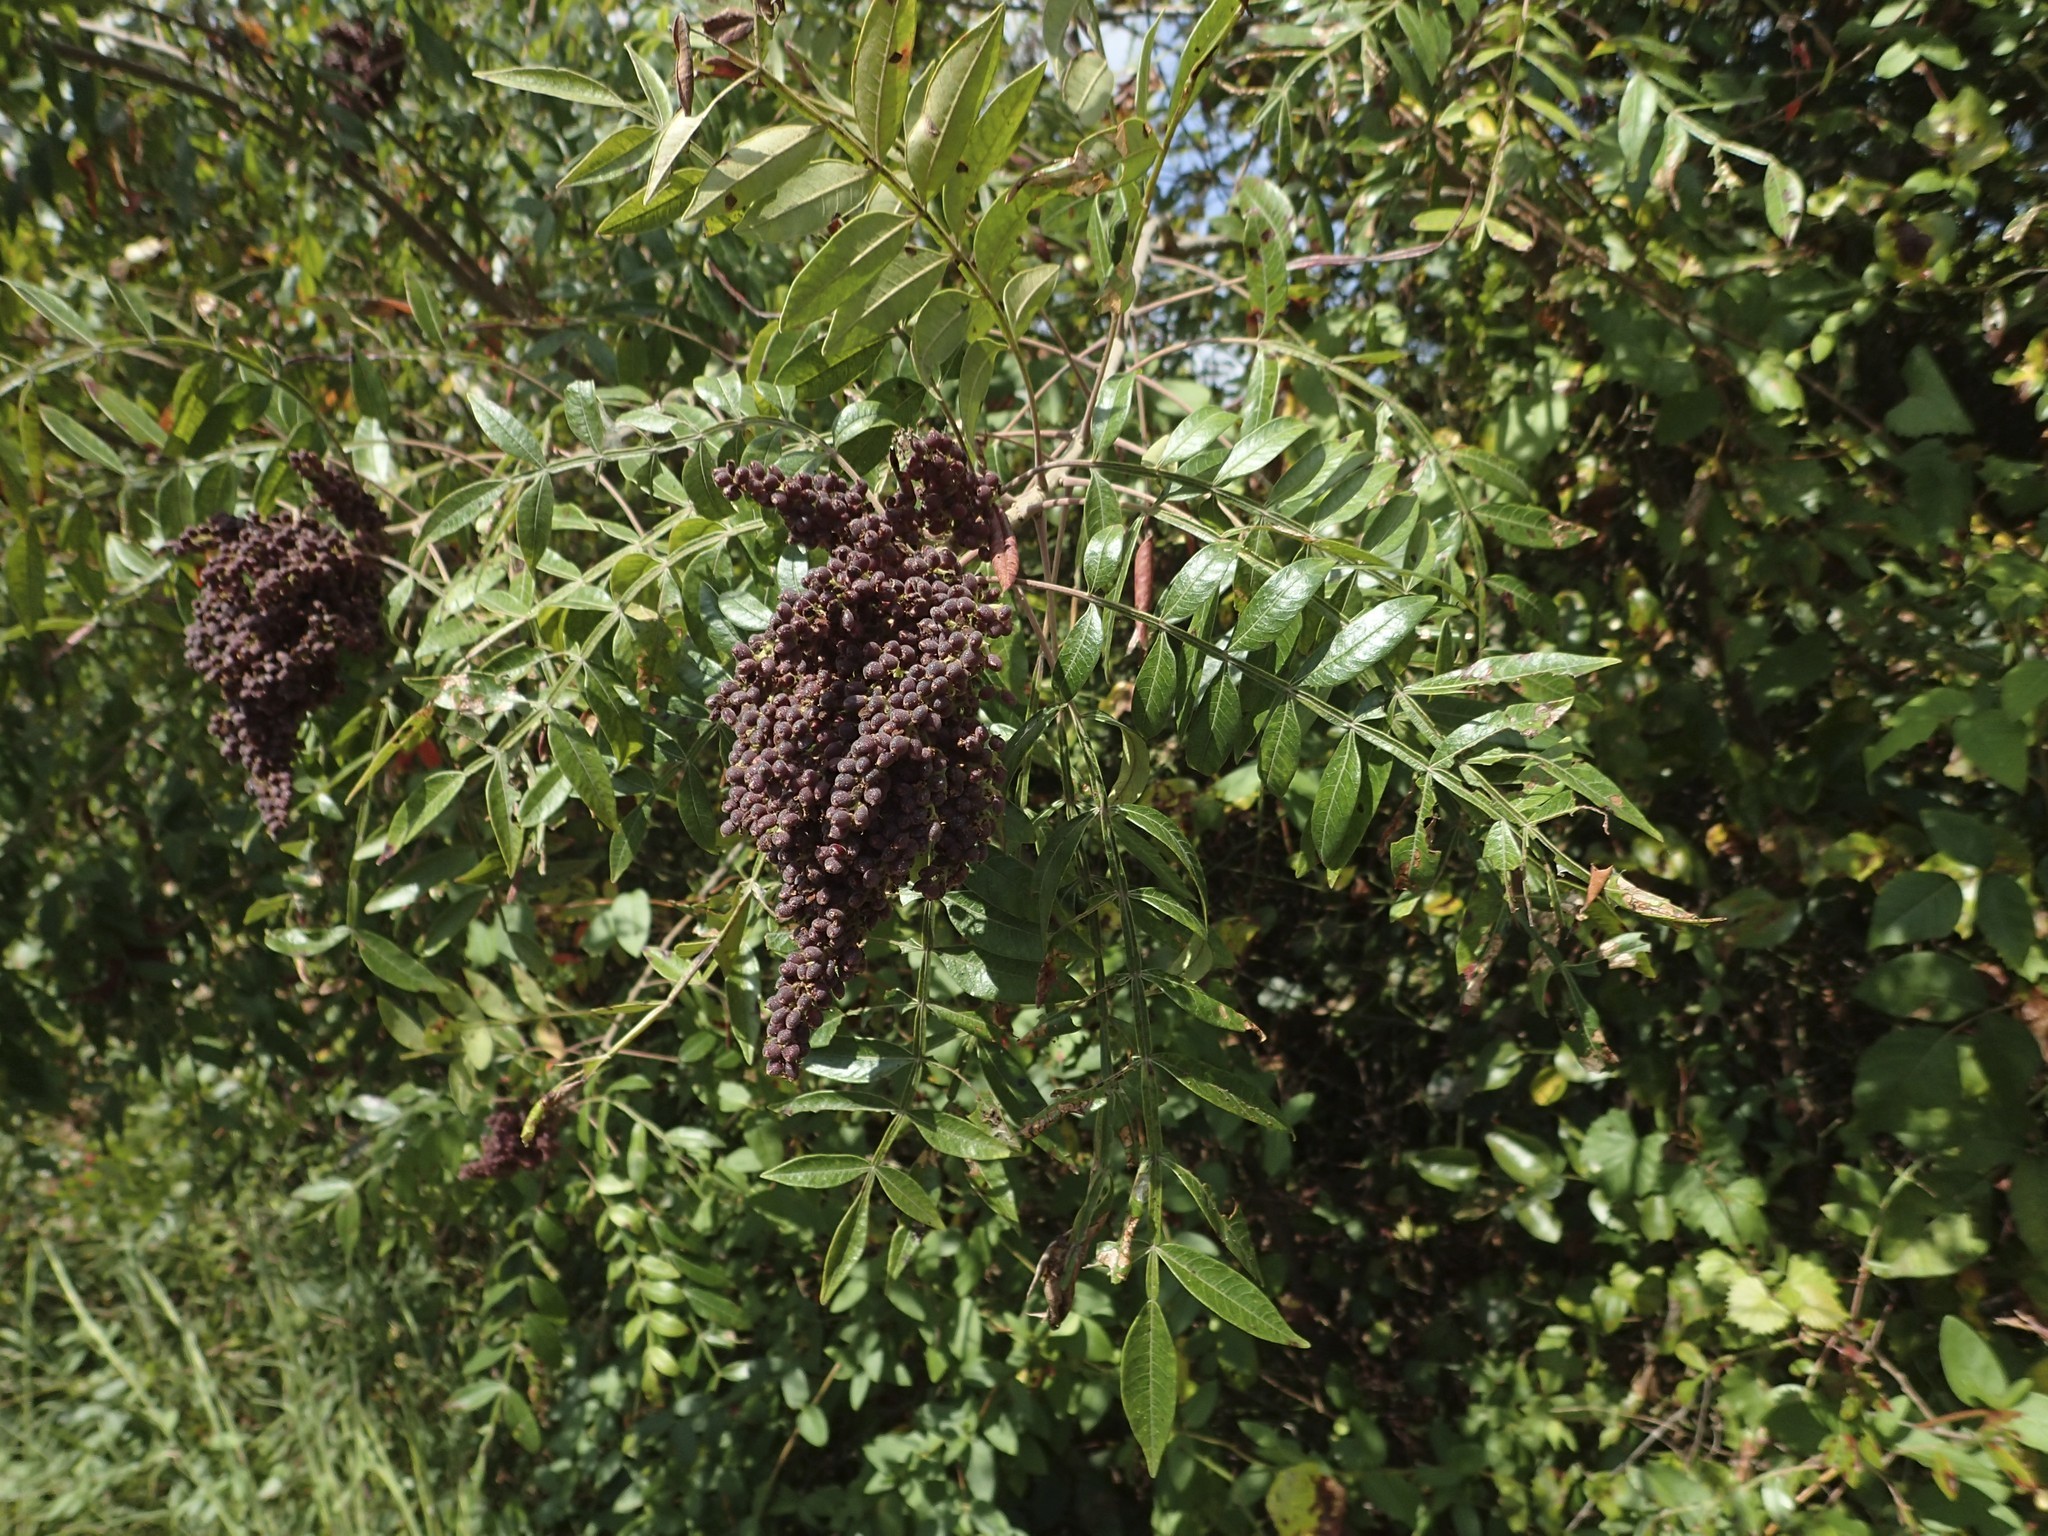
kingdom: Plantae
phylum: Tracheophyta
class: Magnoliopsida
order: Sapindales
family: Anacardiaceae
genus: Rhus
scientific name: Rhus copallina
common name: Shining sumac
